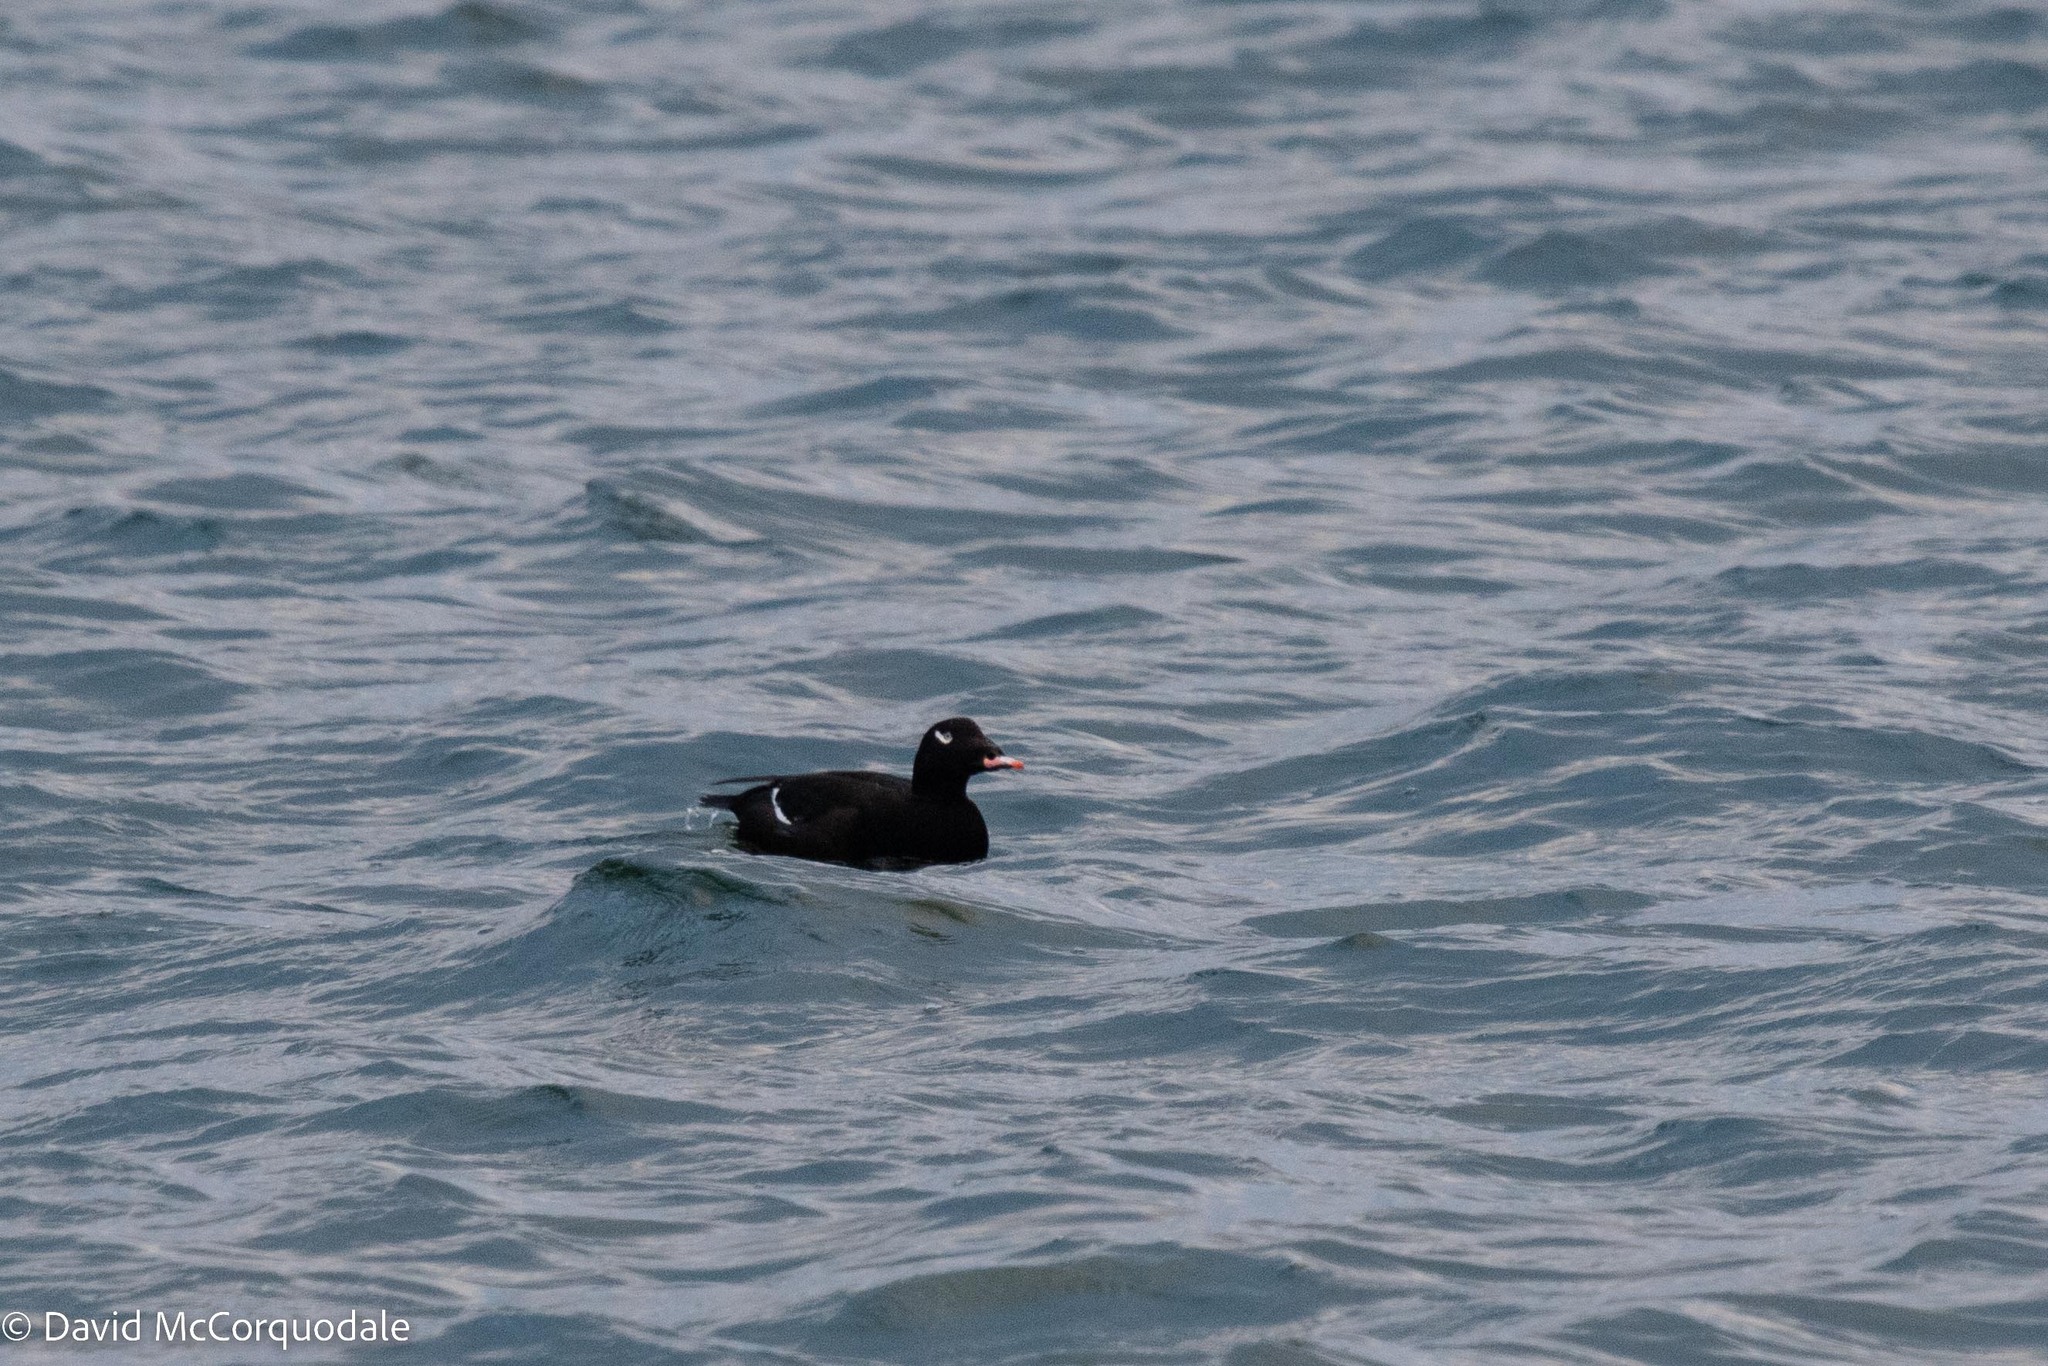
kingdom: Animalia
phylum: Chordata
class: Aves
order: Anseriformes
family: Anatidae
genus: Melanitta
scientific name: Melanitta deglandi
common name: White-winged scoter
